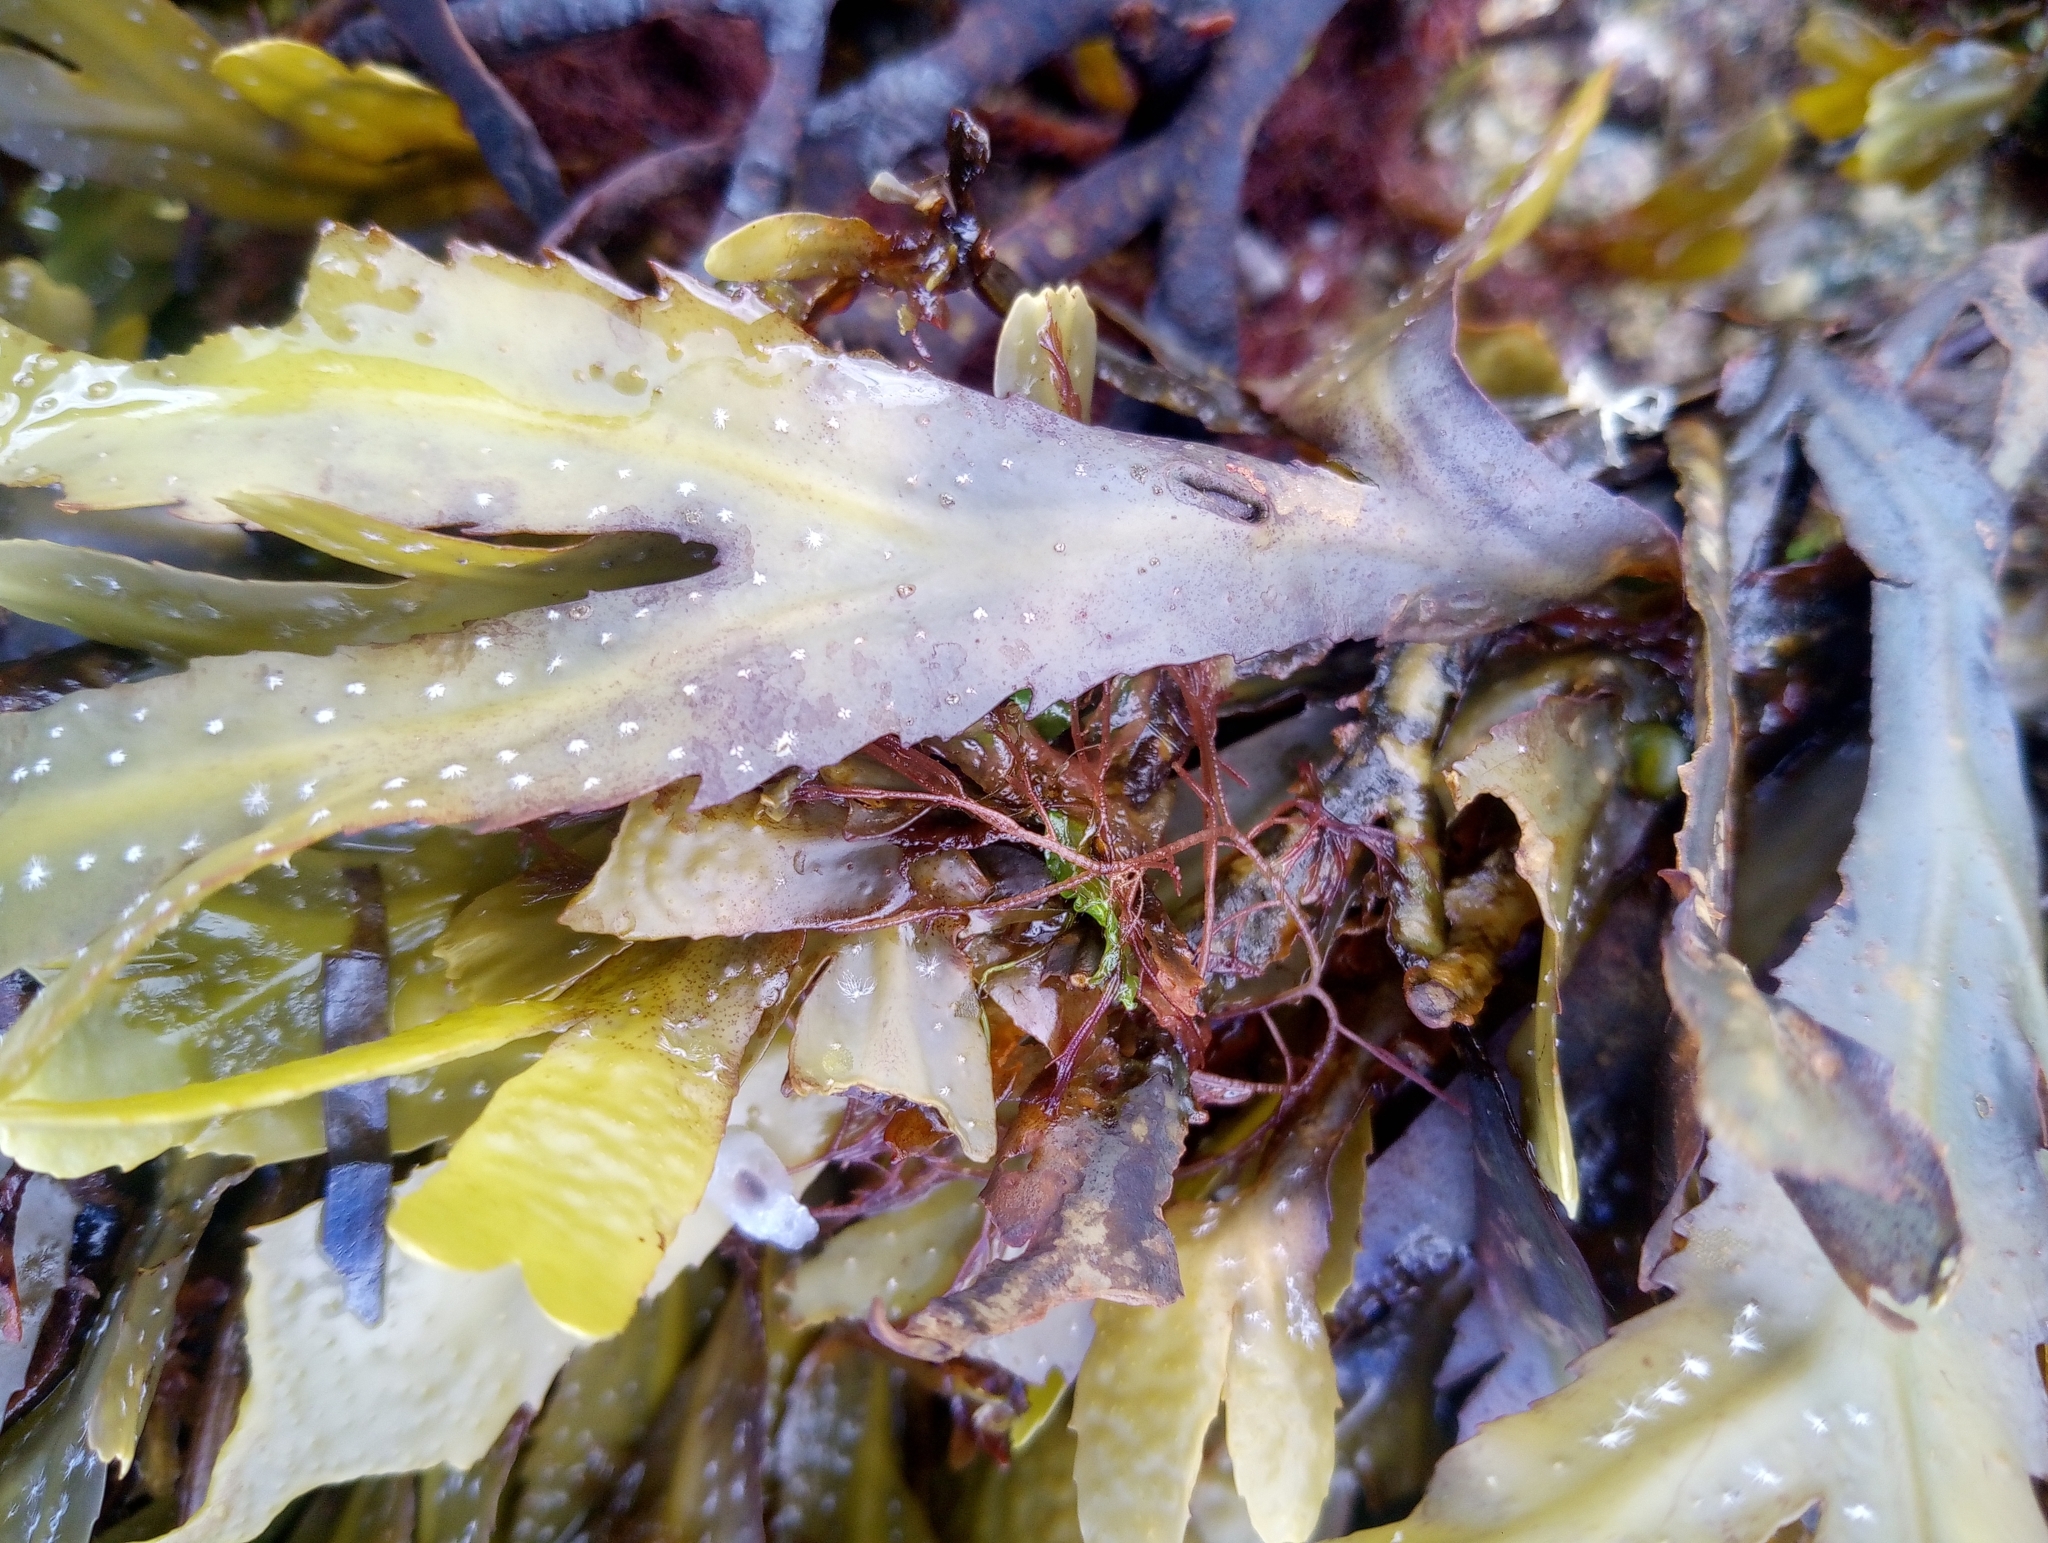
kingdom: Chromista
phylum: Ochrophyta
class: Phaeophyceae
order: Fucales
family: Fucaceae
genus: Fucus
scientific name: Fucus serratus
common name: Toothed wrack
